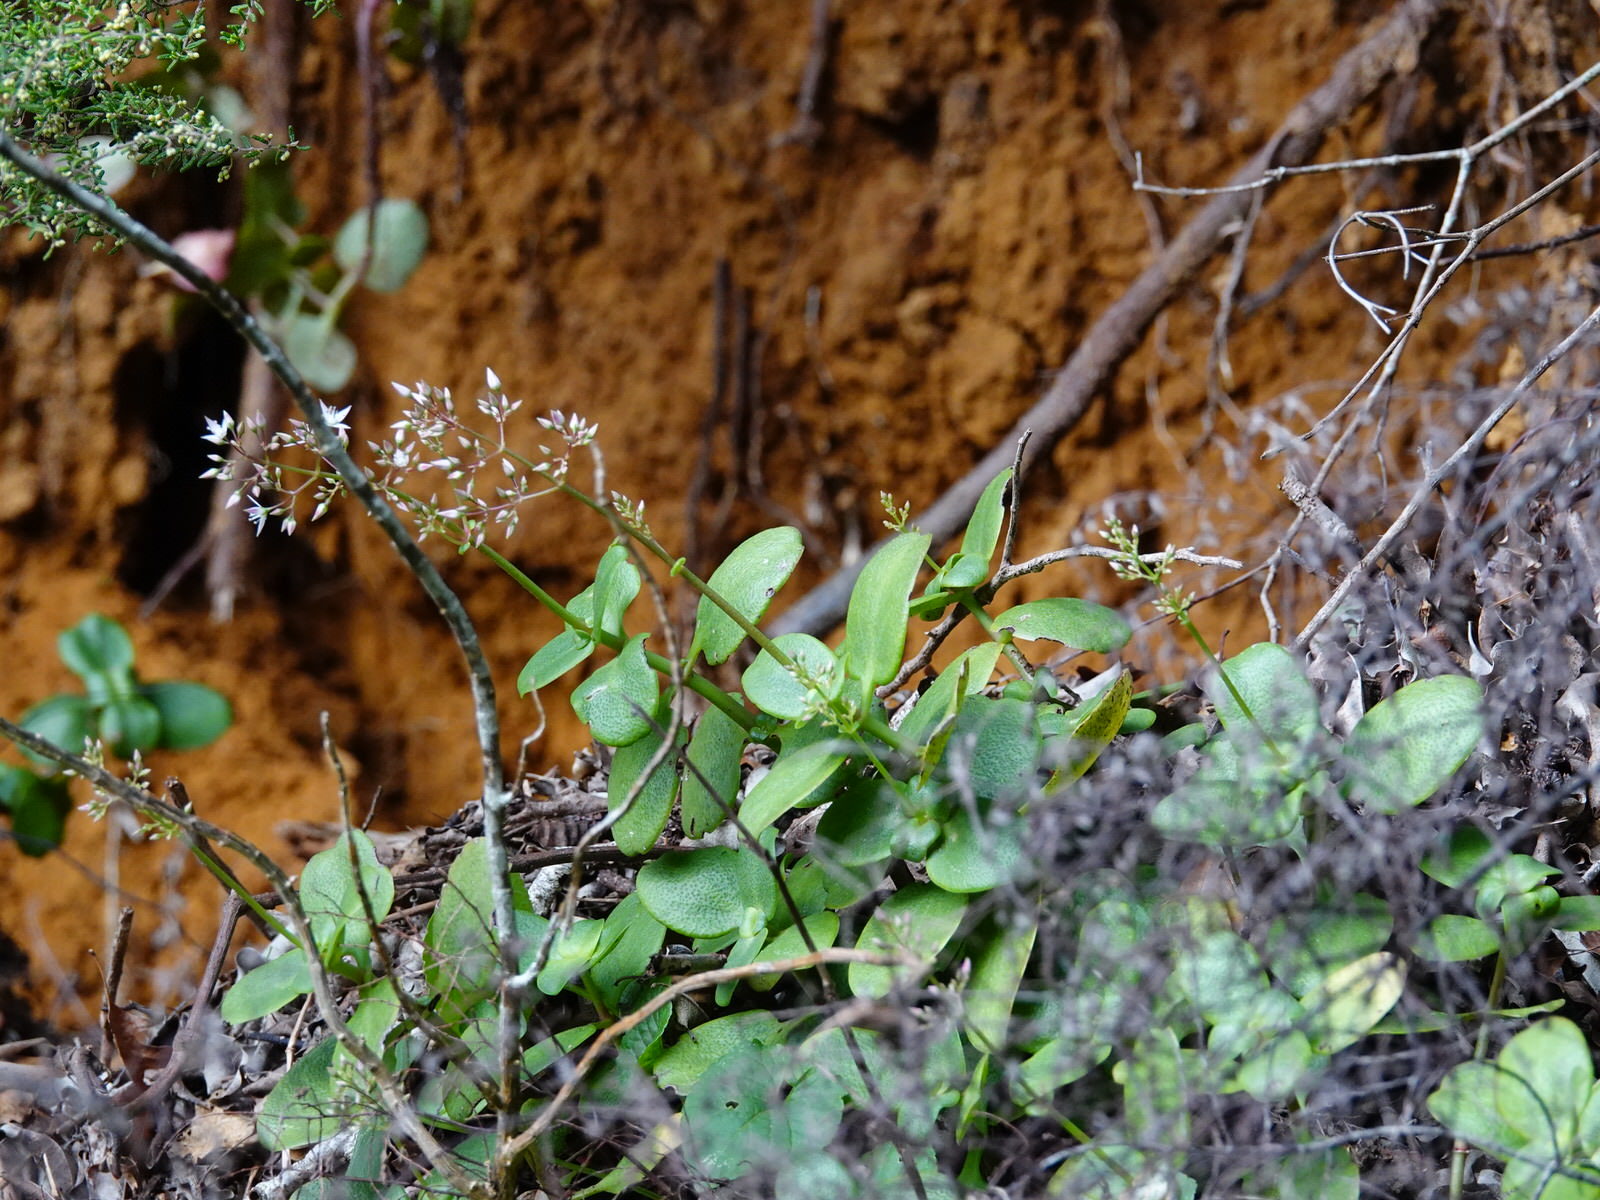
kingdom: Plantae
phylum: Tracheophyta
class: Magnoliopsida
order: Saxifragales
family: Crassulaceae
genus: Crassula
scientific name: Crassula multicava
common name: Cape province pygmyweed
